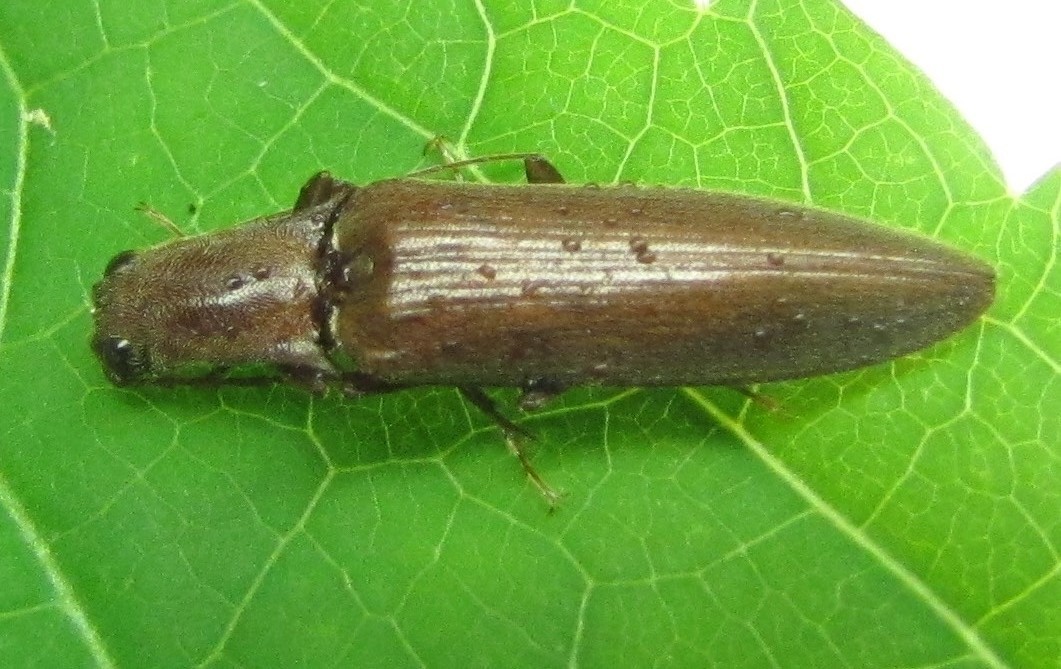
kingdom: Animalia
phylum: Arthropoda
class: Insecta
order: Coleoptera
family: Elateridae
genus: Proludius
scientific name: Proludius pyrros
